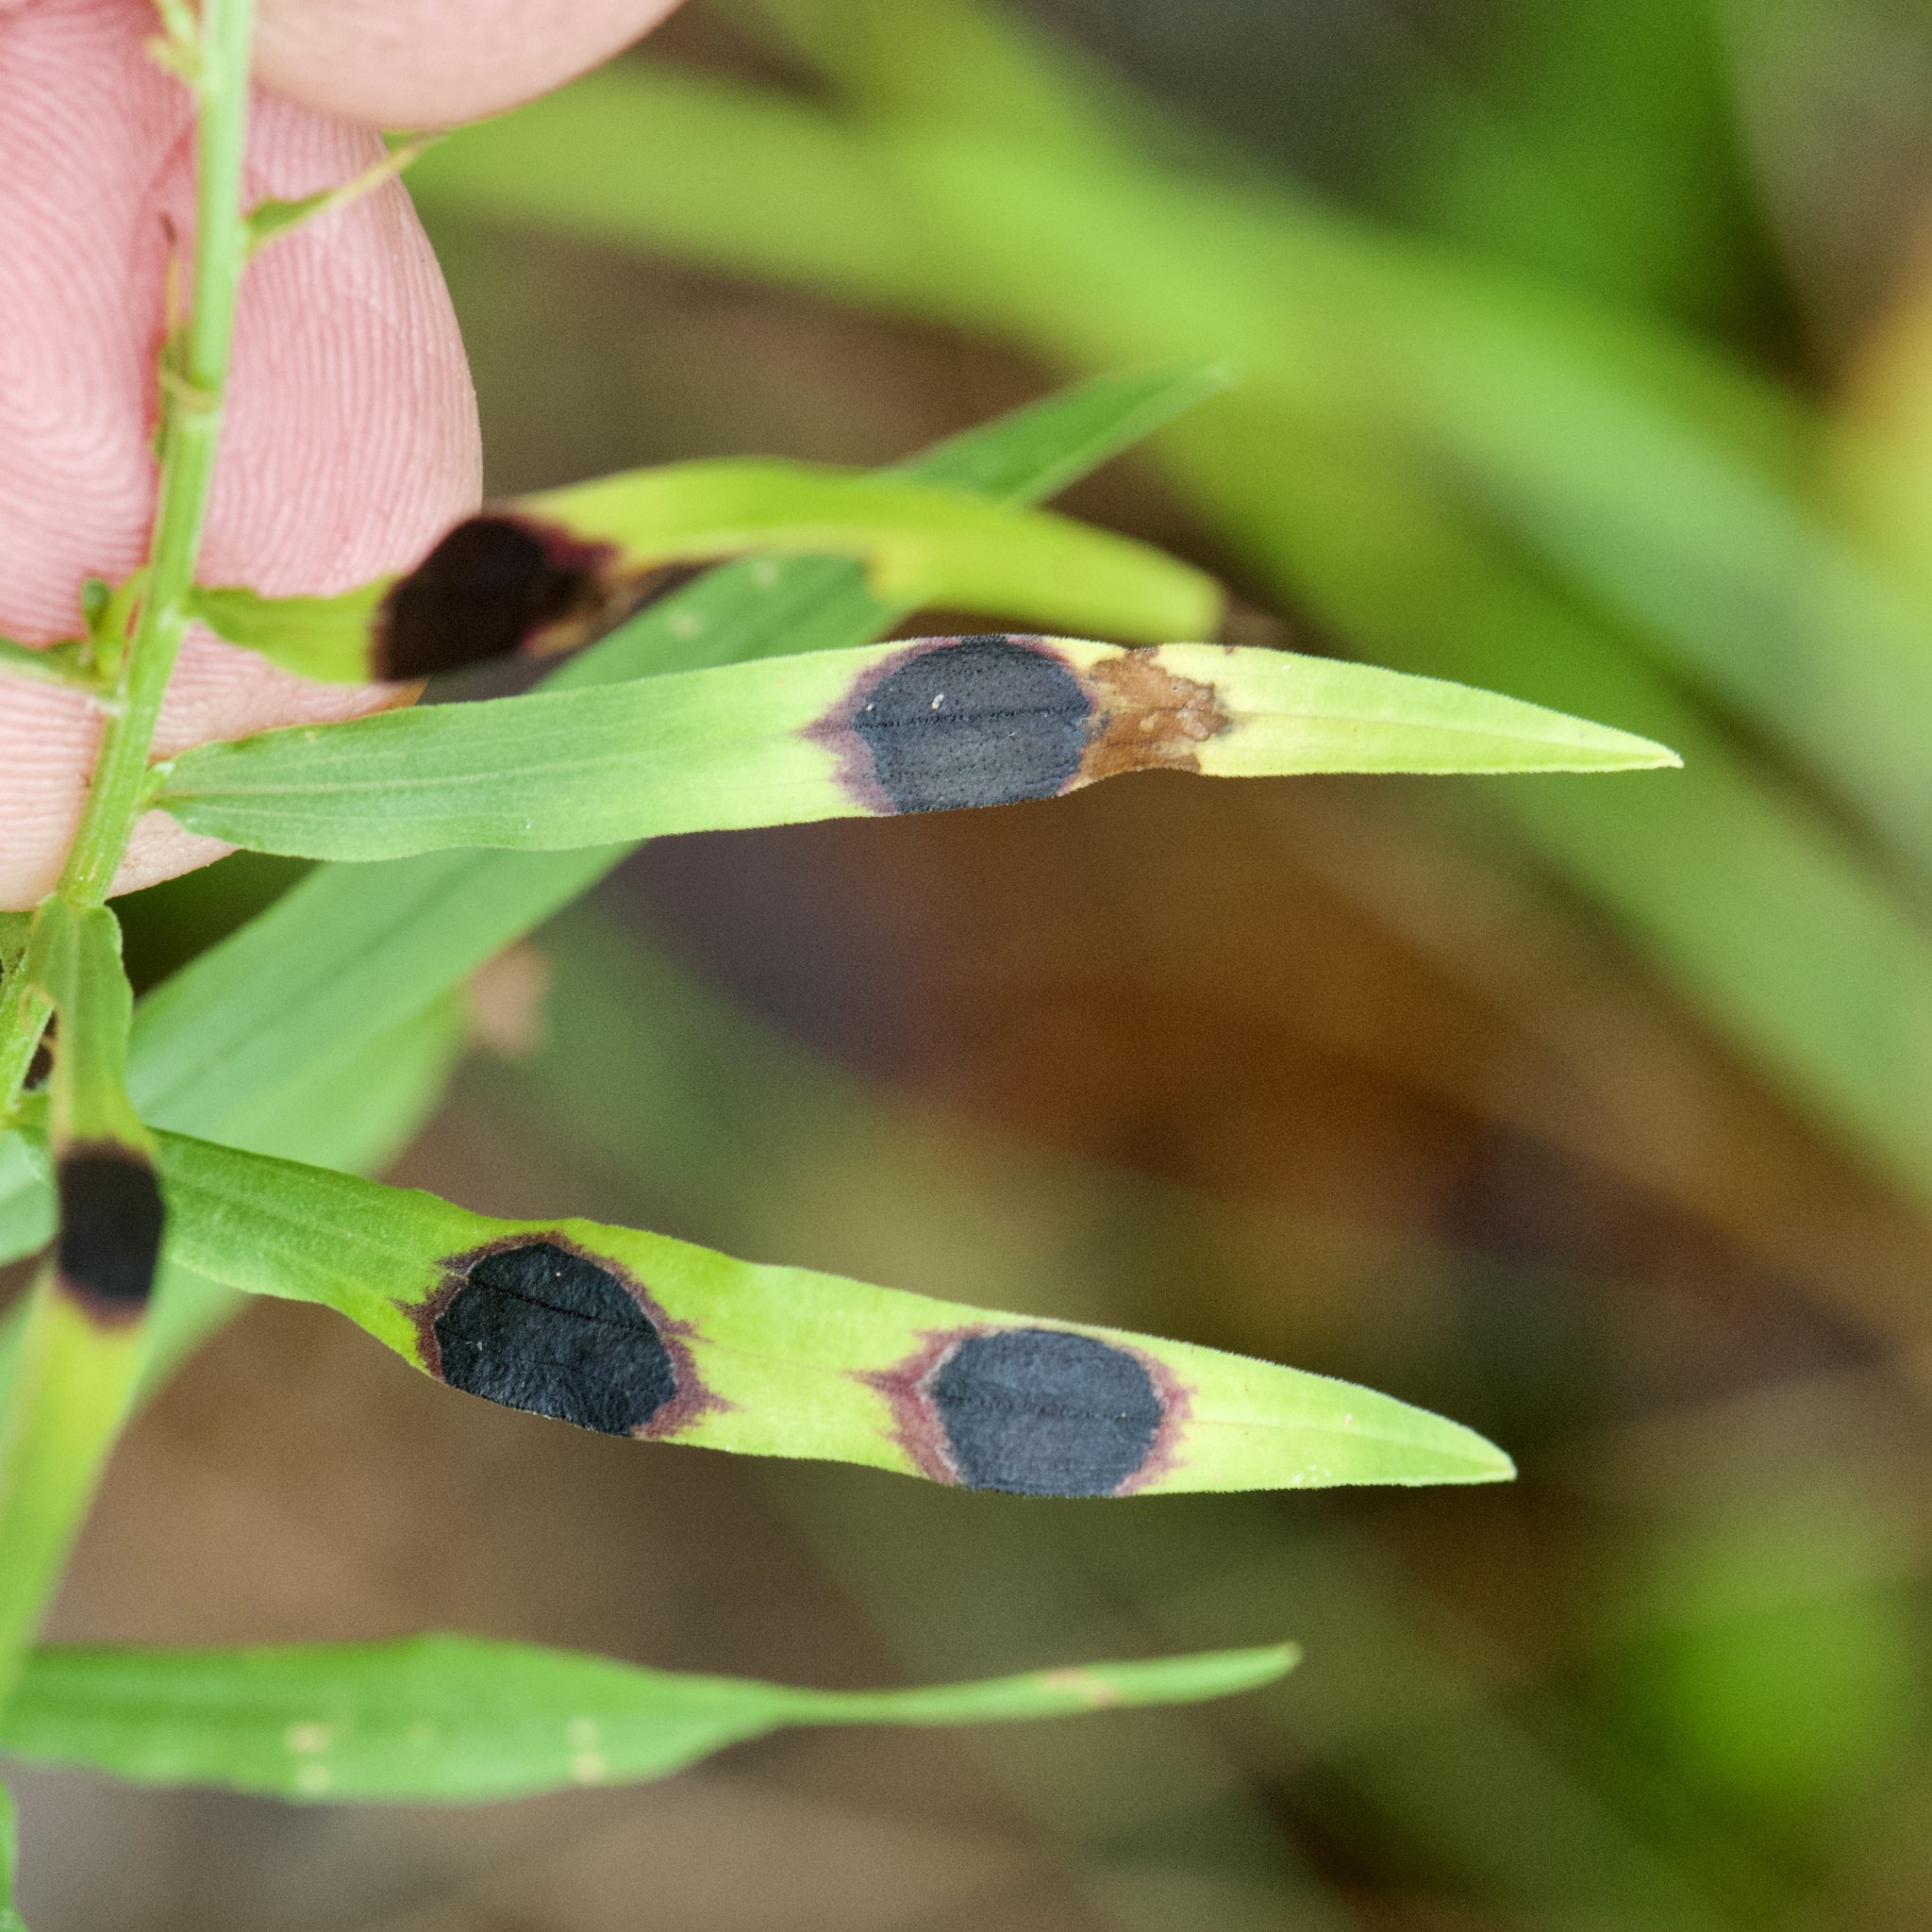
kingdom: Animalia
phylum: Arthropoda
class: Insecta
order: Diptera
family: Cecidomyiidae
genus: Asteromyia
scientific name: Asteromyia euthamiae
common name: Euthamia leaf gall midge
